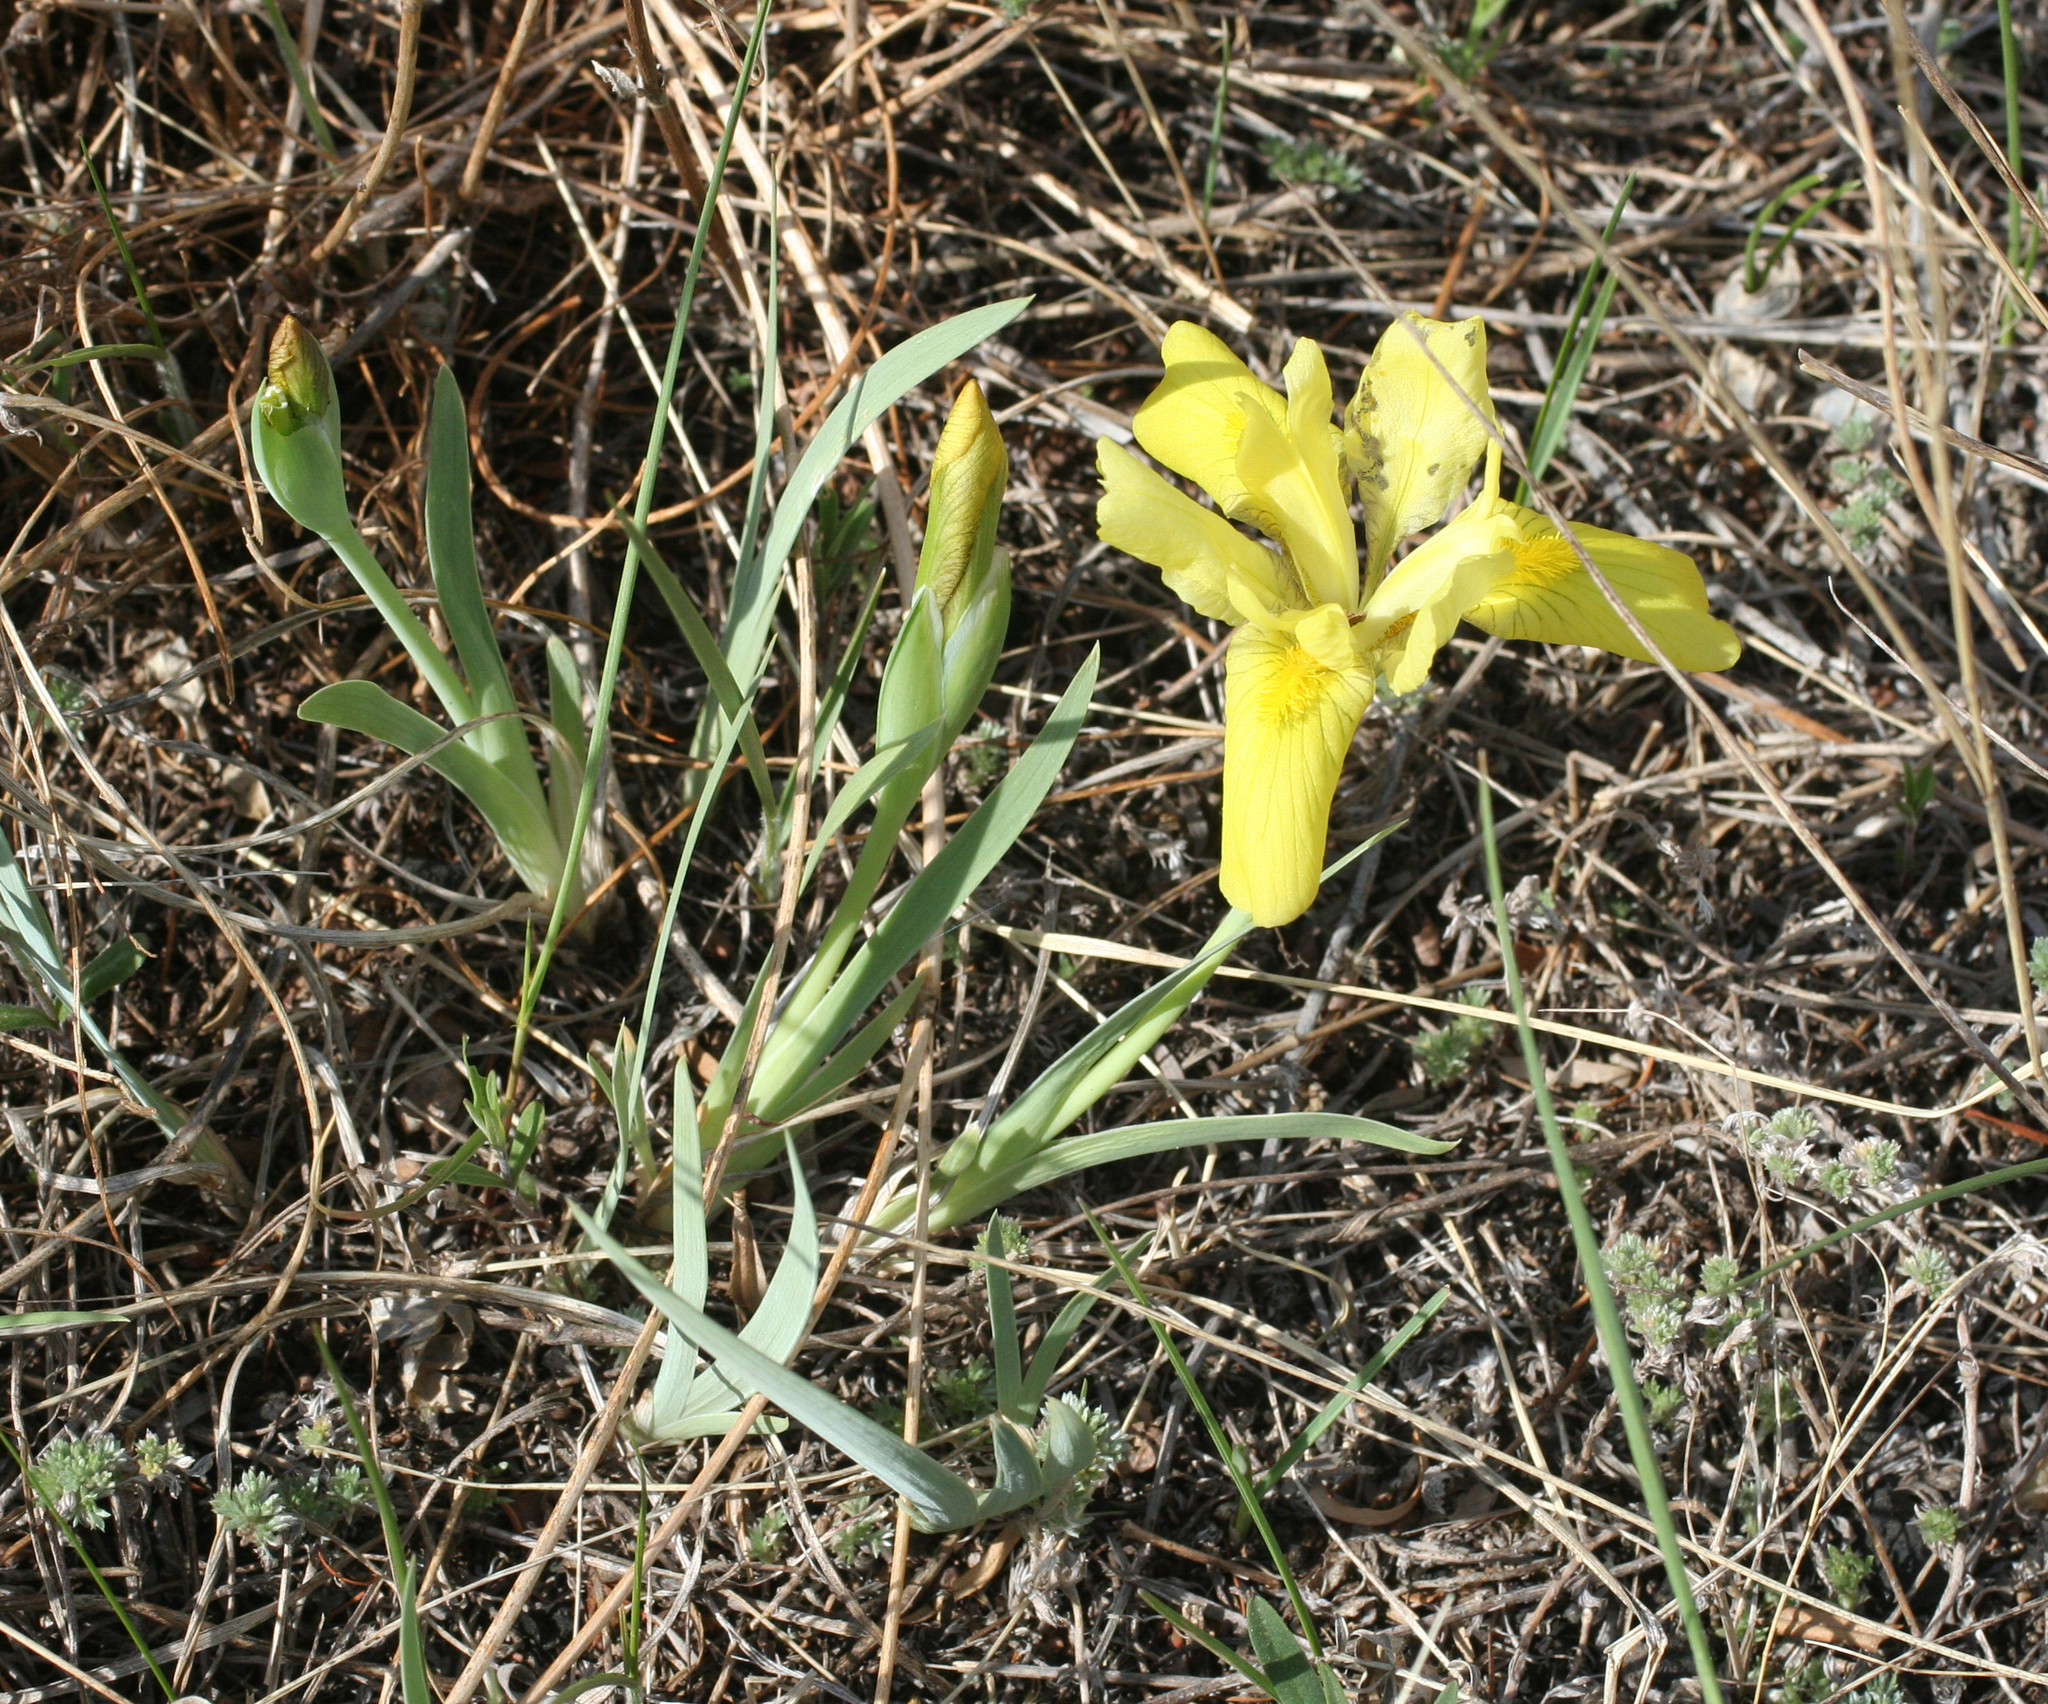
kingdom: Plantae
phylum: Tracheophyta
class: Liliopsida
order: Asparagales
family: Iridaceae
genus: Iris
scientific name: Iris humilis
